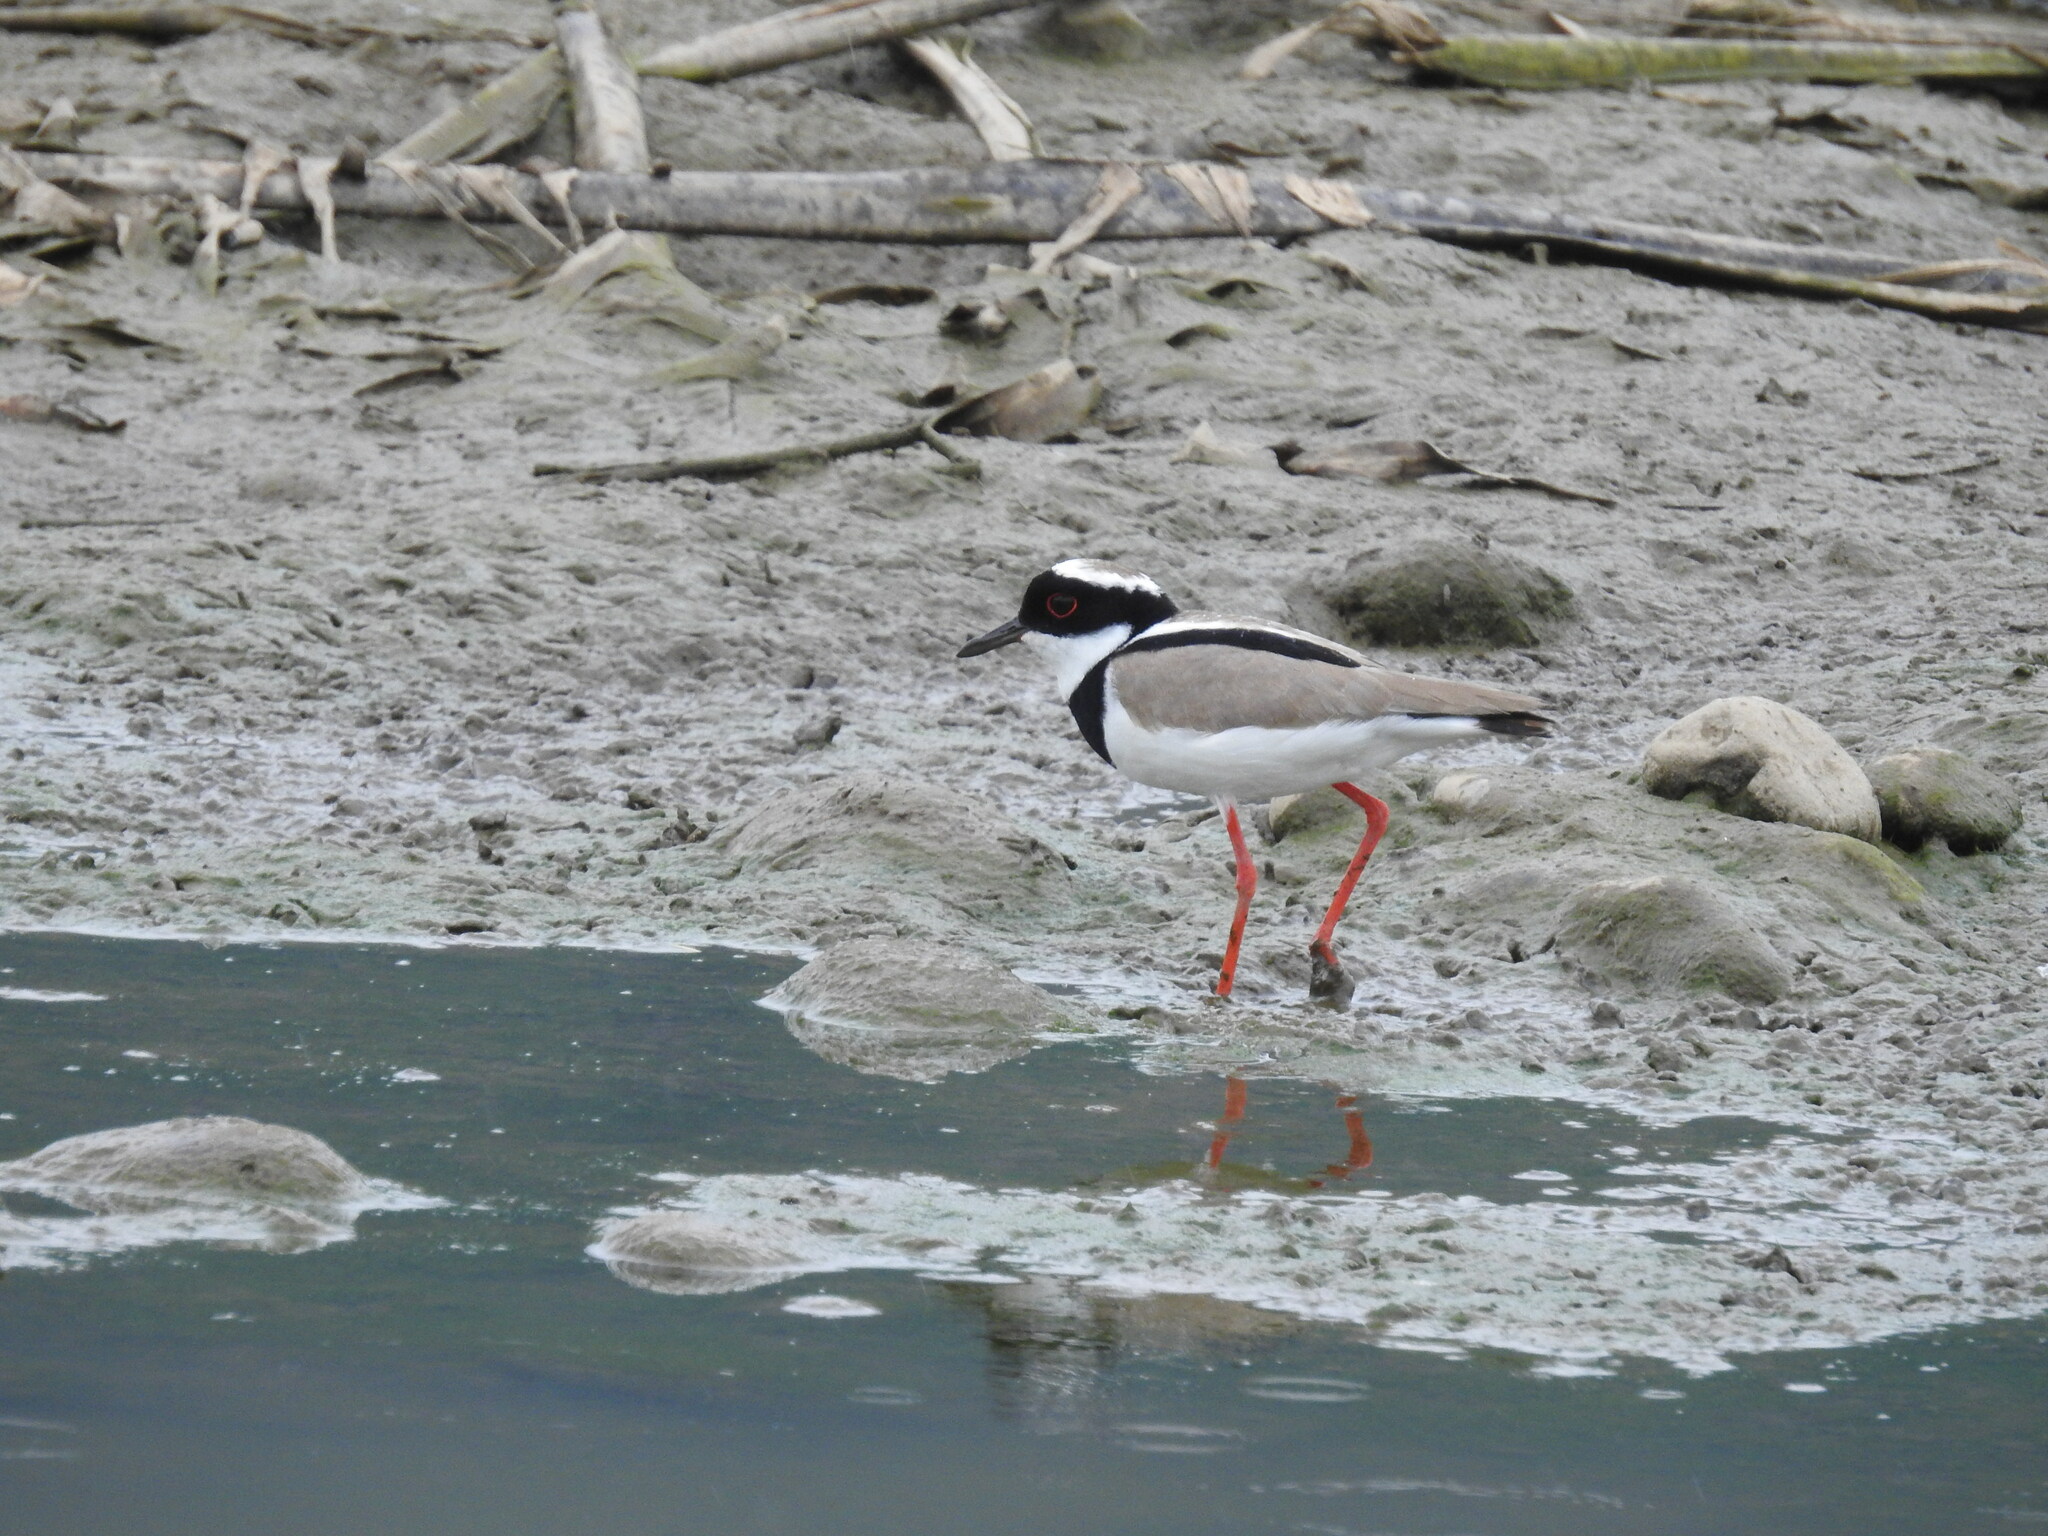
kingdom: Animalia
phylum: Chordata
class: Aves
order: Charadriiformes
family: Charadriidae
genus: Hoploxypterus
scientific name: Hoploxypterus cayanus
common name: Pied plover
